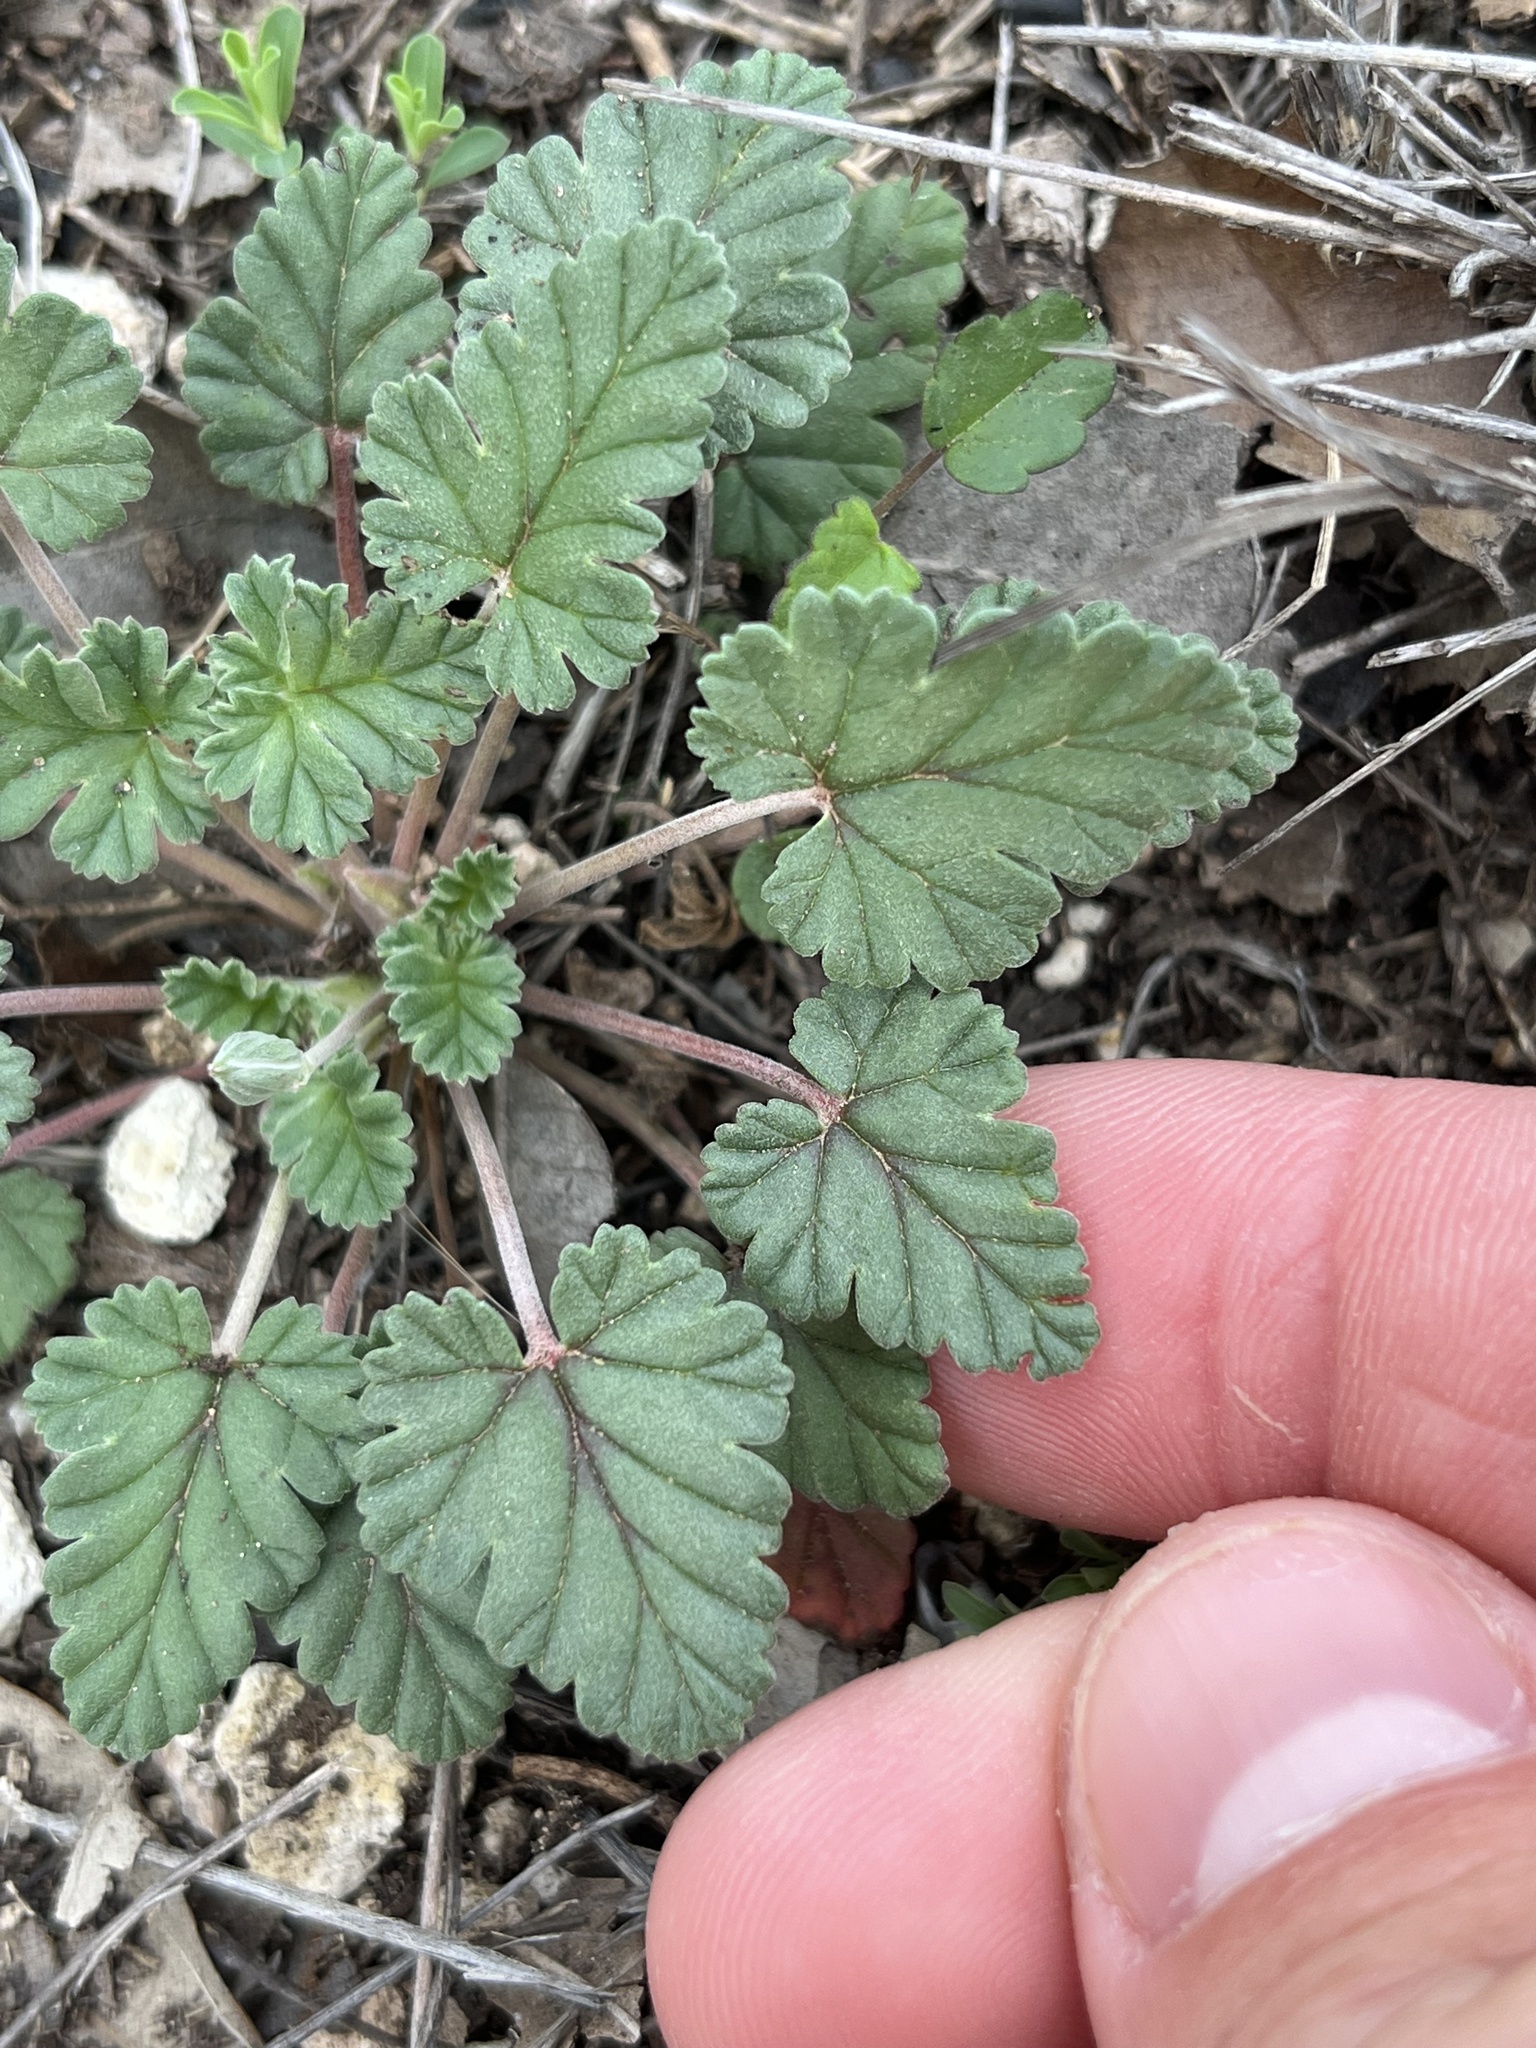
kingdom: Plantae
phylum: Tracheophyta
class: Magnoliopsida
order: Geraniales
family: Geraniaceae
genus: Erodium
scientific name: Erodium texanum
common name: Texas stork's-bill
